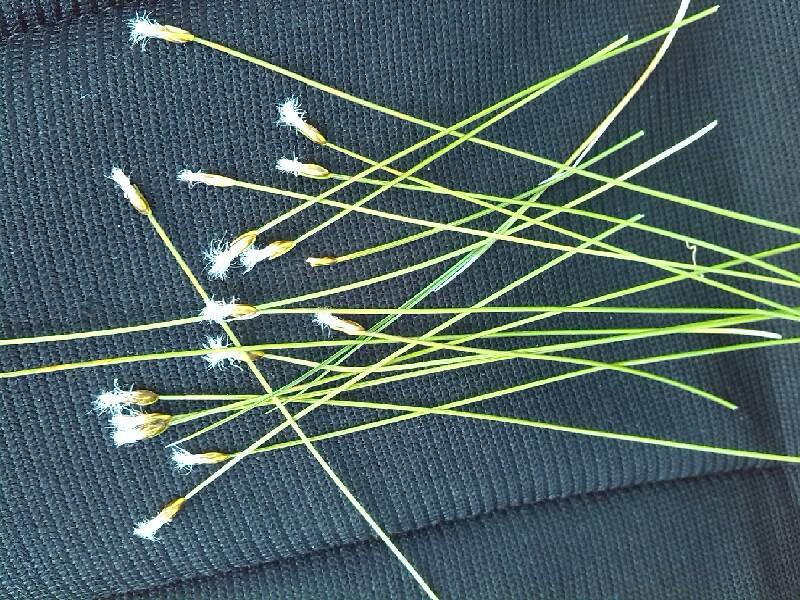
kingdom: Plantae
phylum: Tracheophyta
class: Liliopsida
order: Poales
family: Cyperaceae
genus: Trichophorum
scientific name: Trichophorum alpinum
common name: Alpine bulrush
